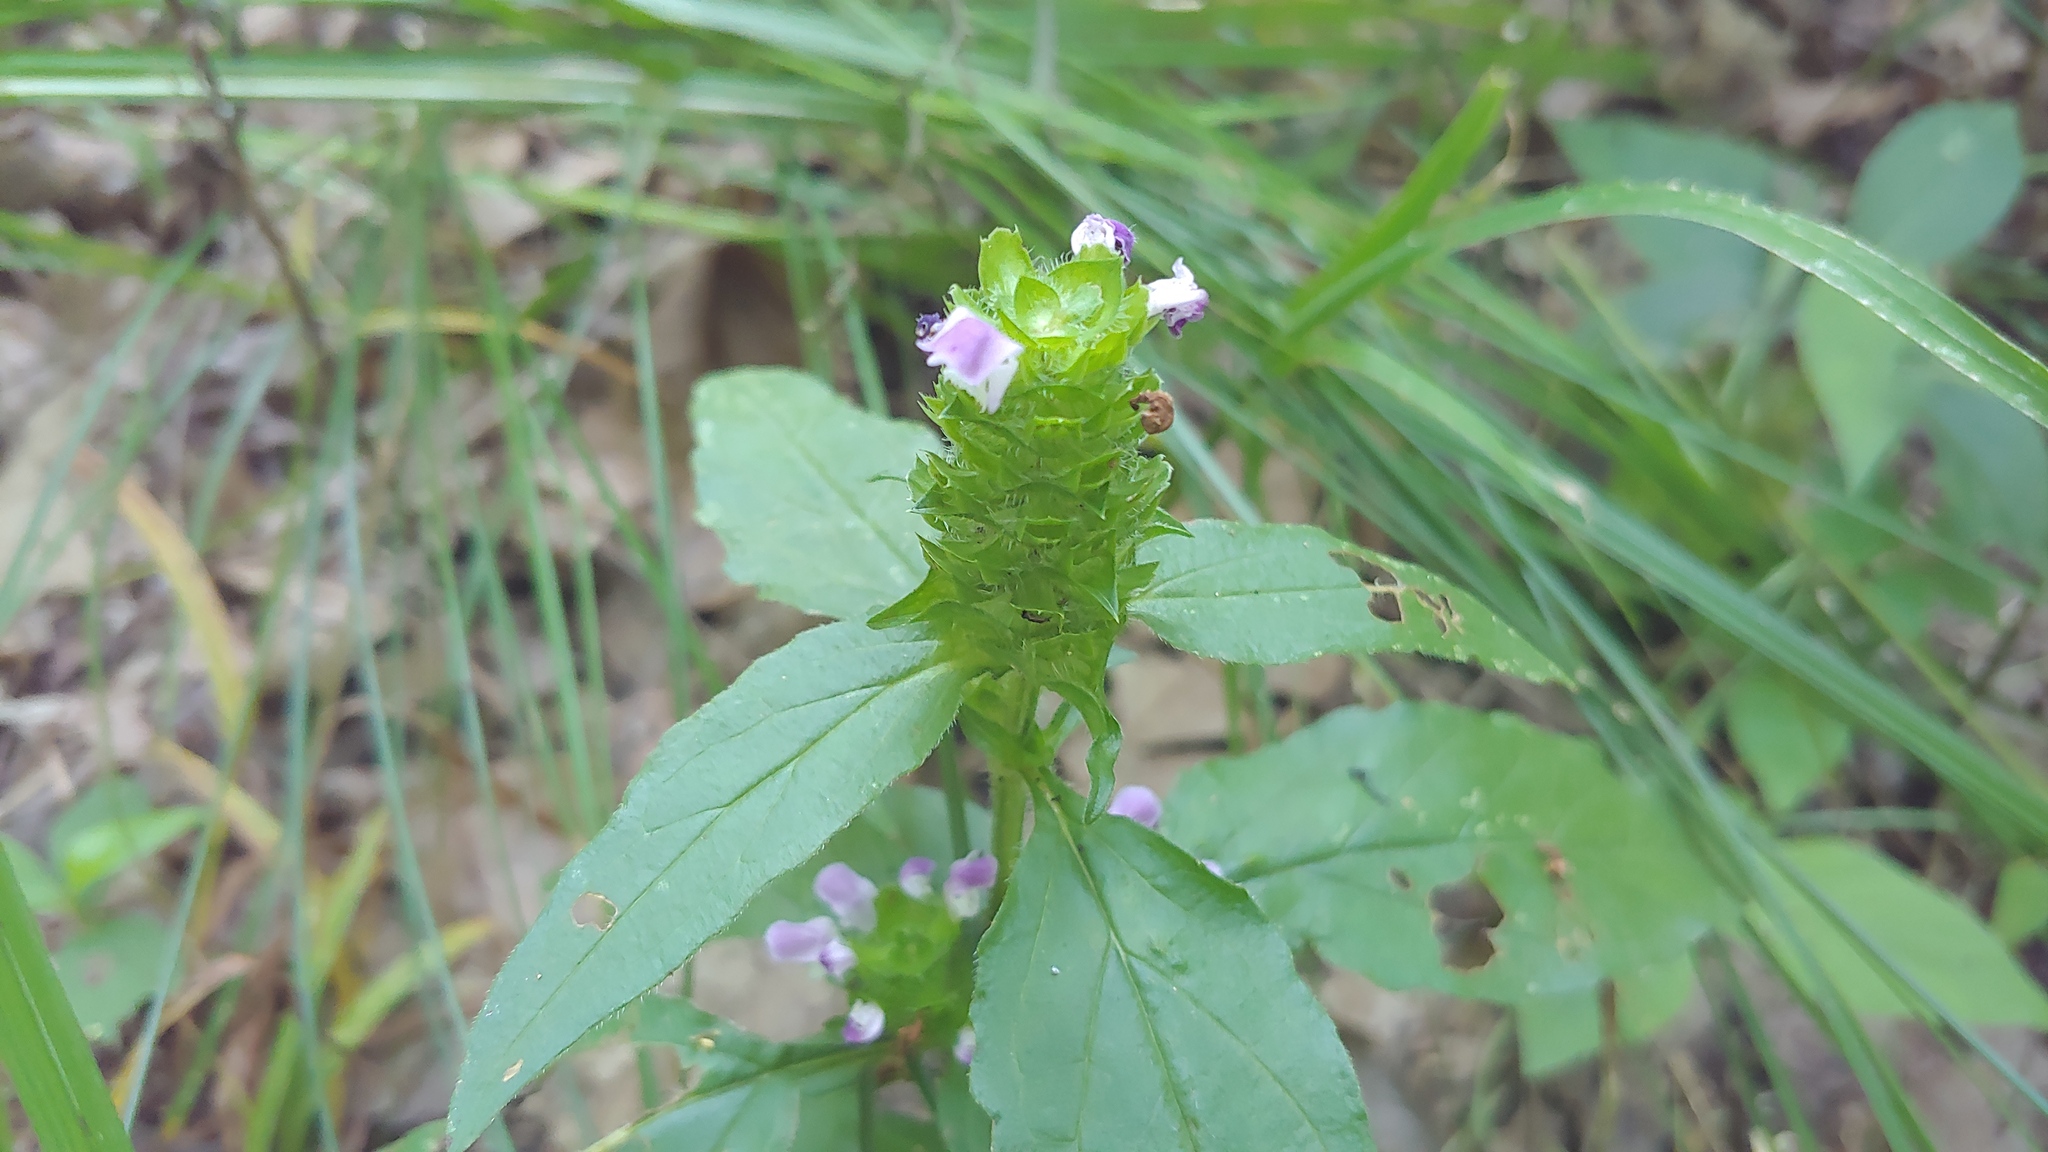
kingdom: Plantae
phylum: Tracheophyta
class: Magnoliopsida
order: Lamiales
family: Lamiaceae
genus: Prunella
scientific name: Prunella vulgaris
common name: Heal-all
